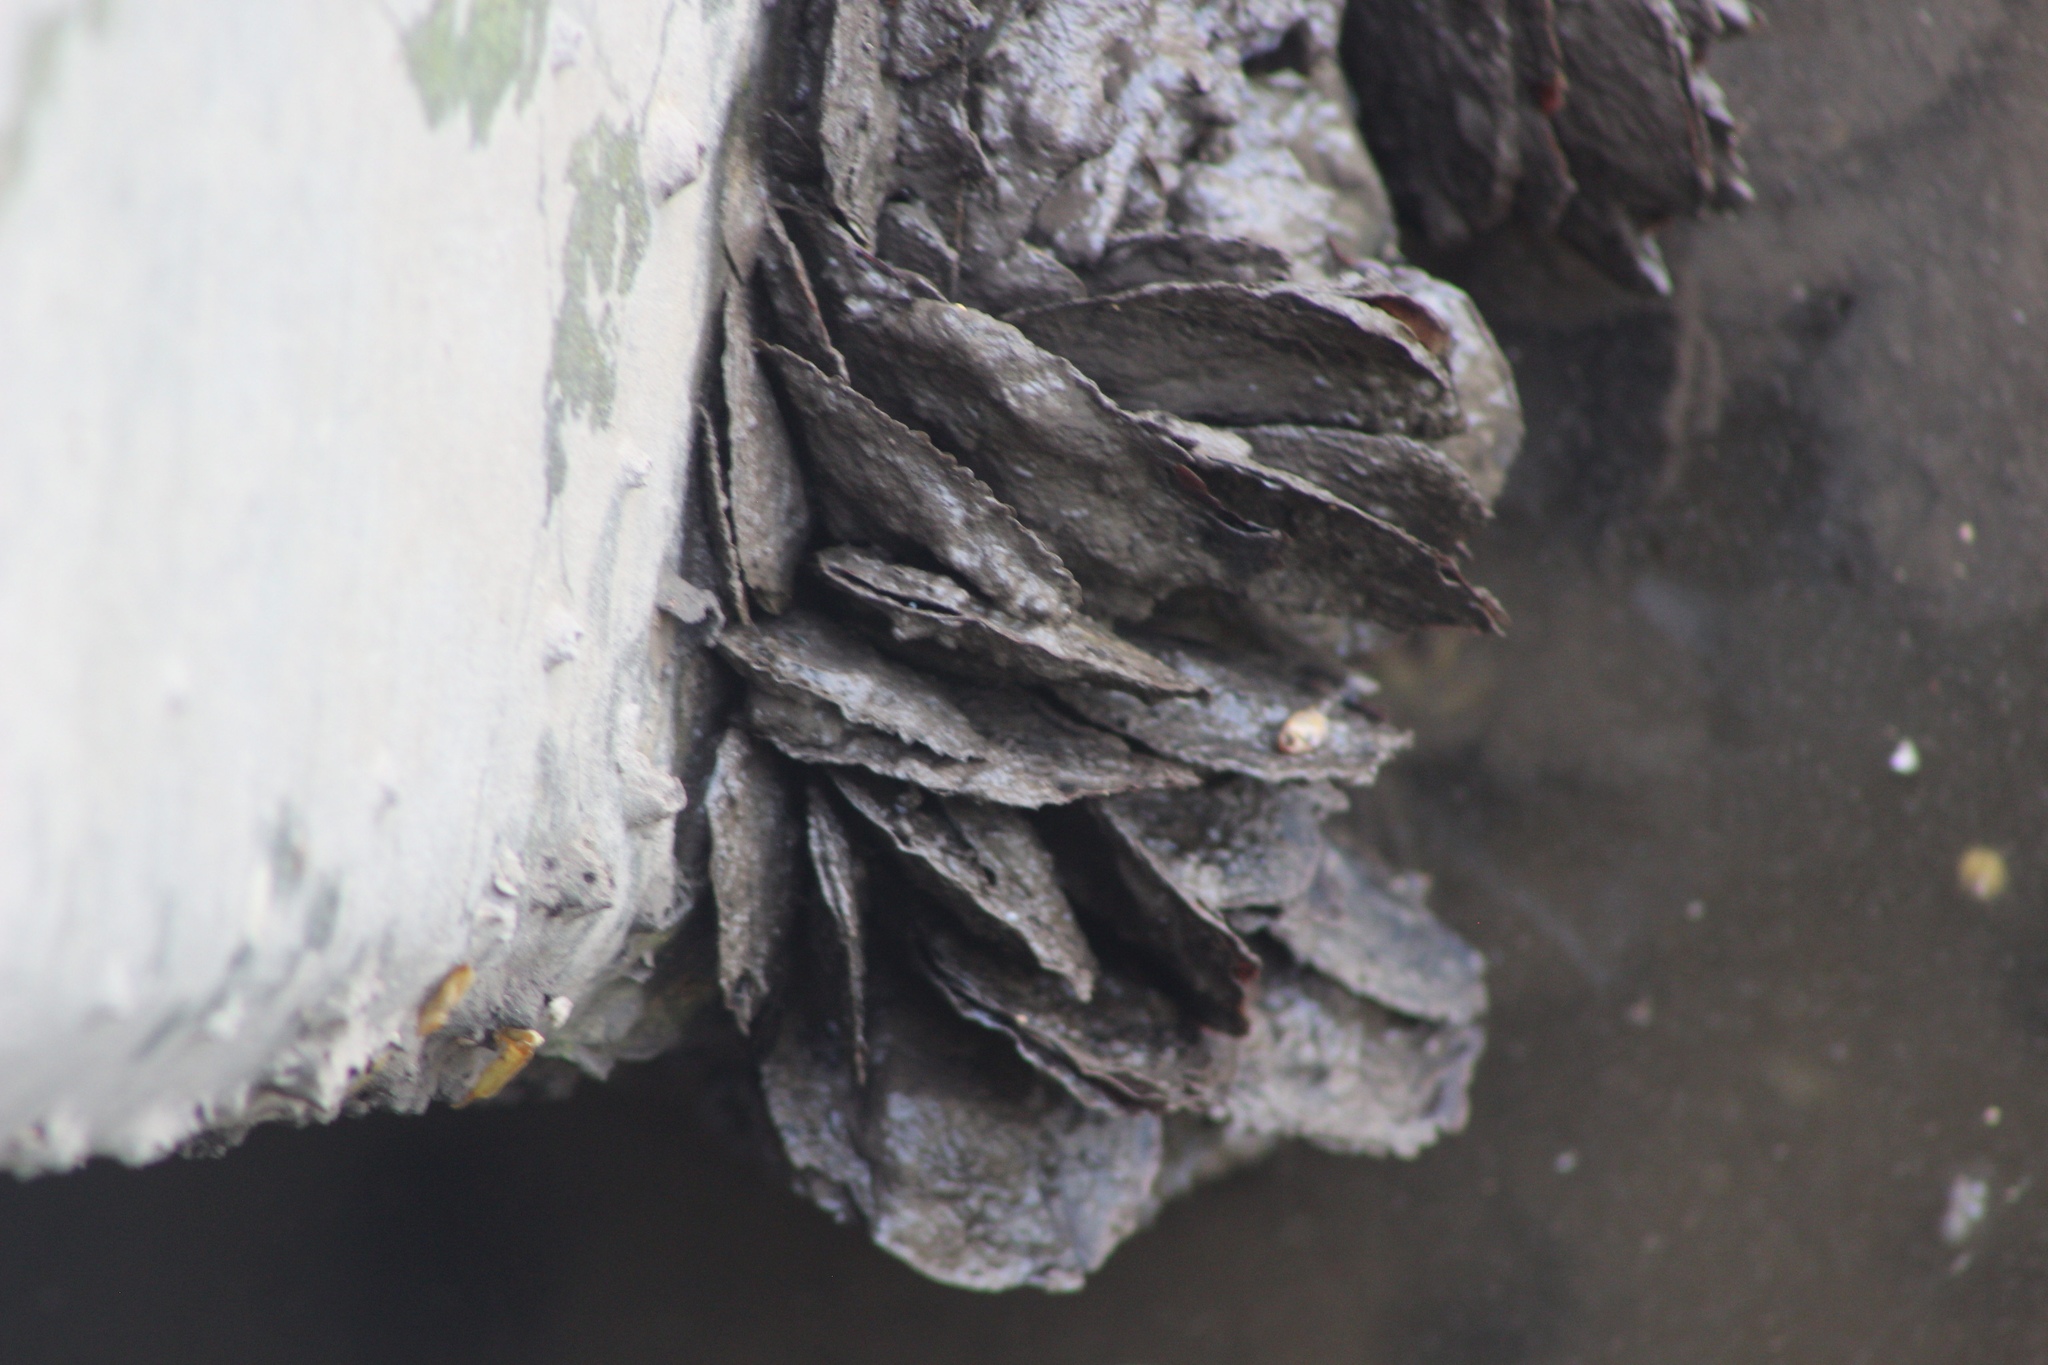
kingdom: Animalia
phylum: Mollusca
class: Bivalvia
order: Ostreida
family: Isognomonidae
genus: Isognomon
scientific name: Isognomon alatus
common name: Flat tree-oyster
